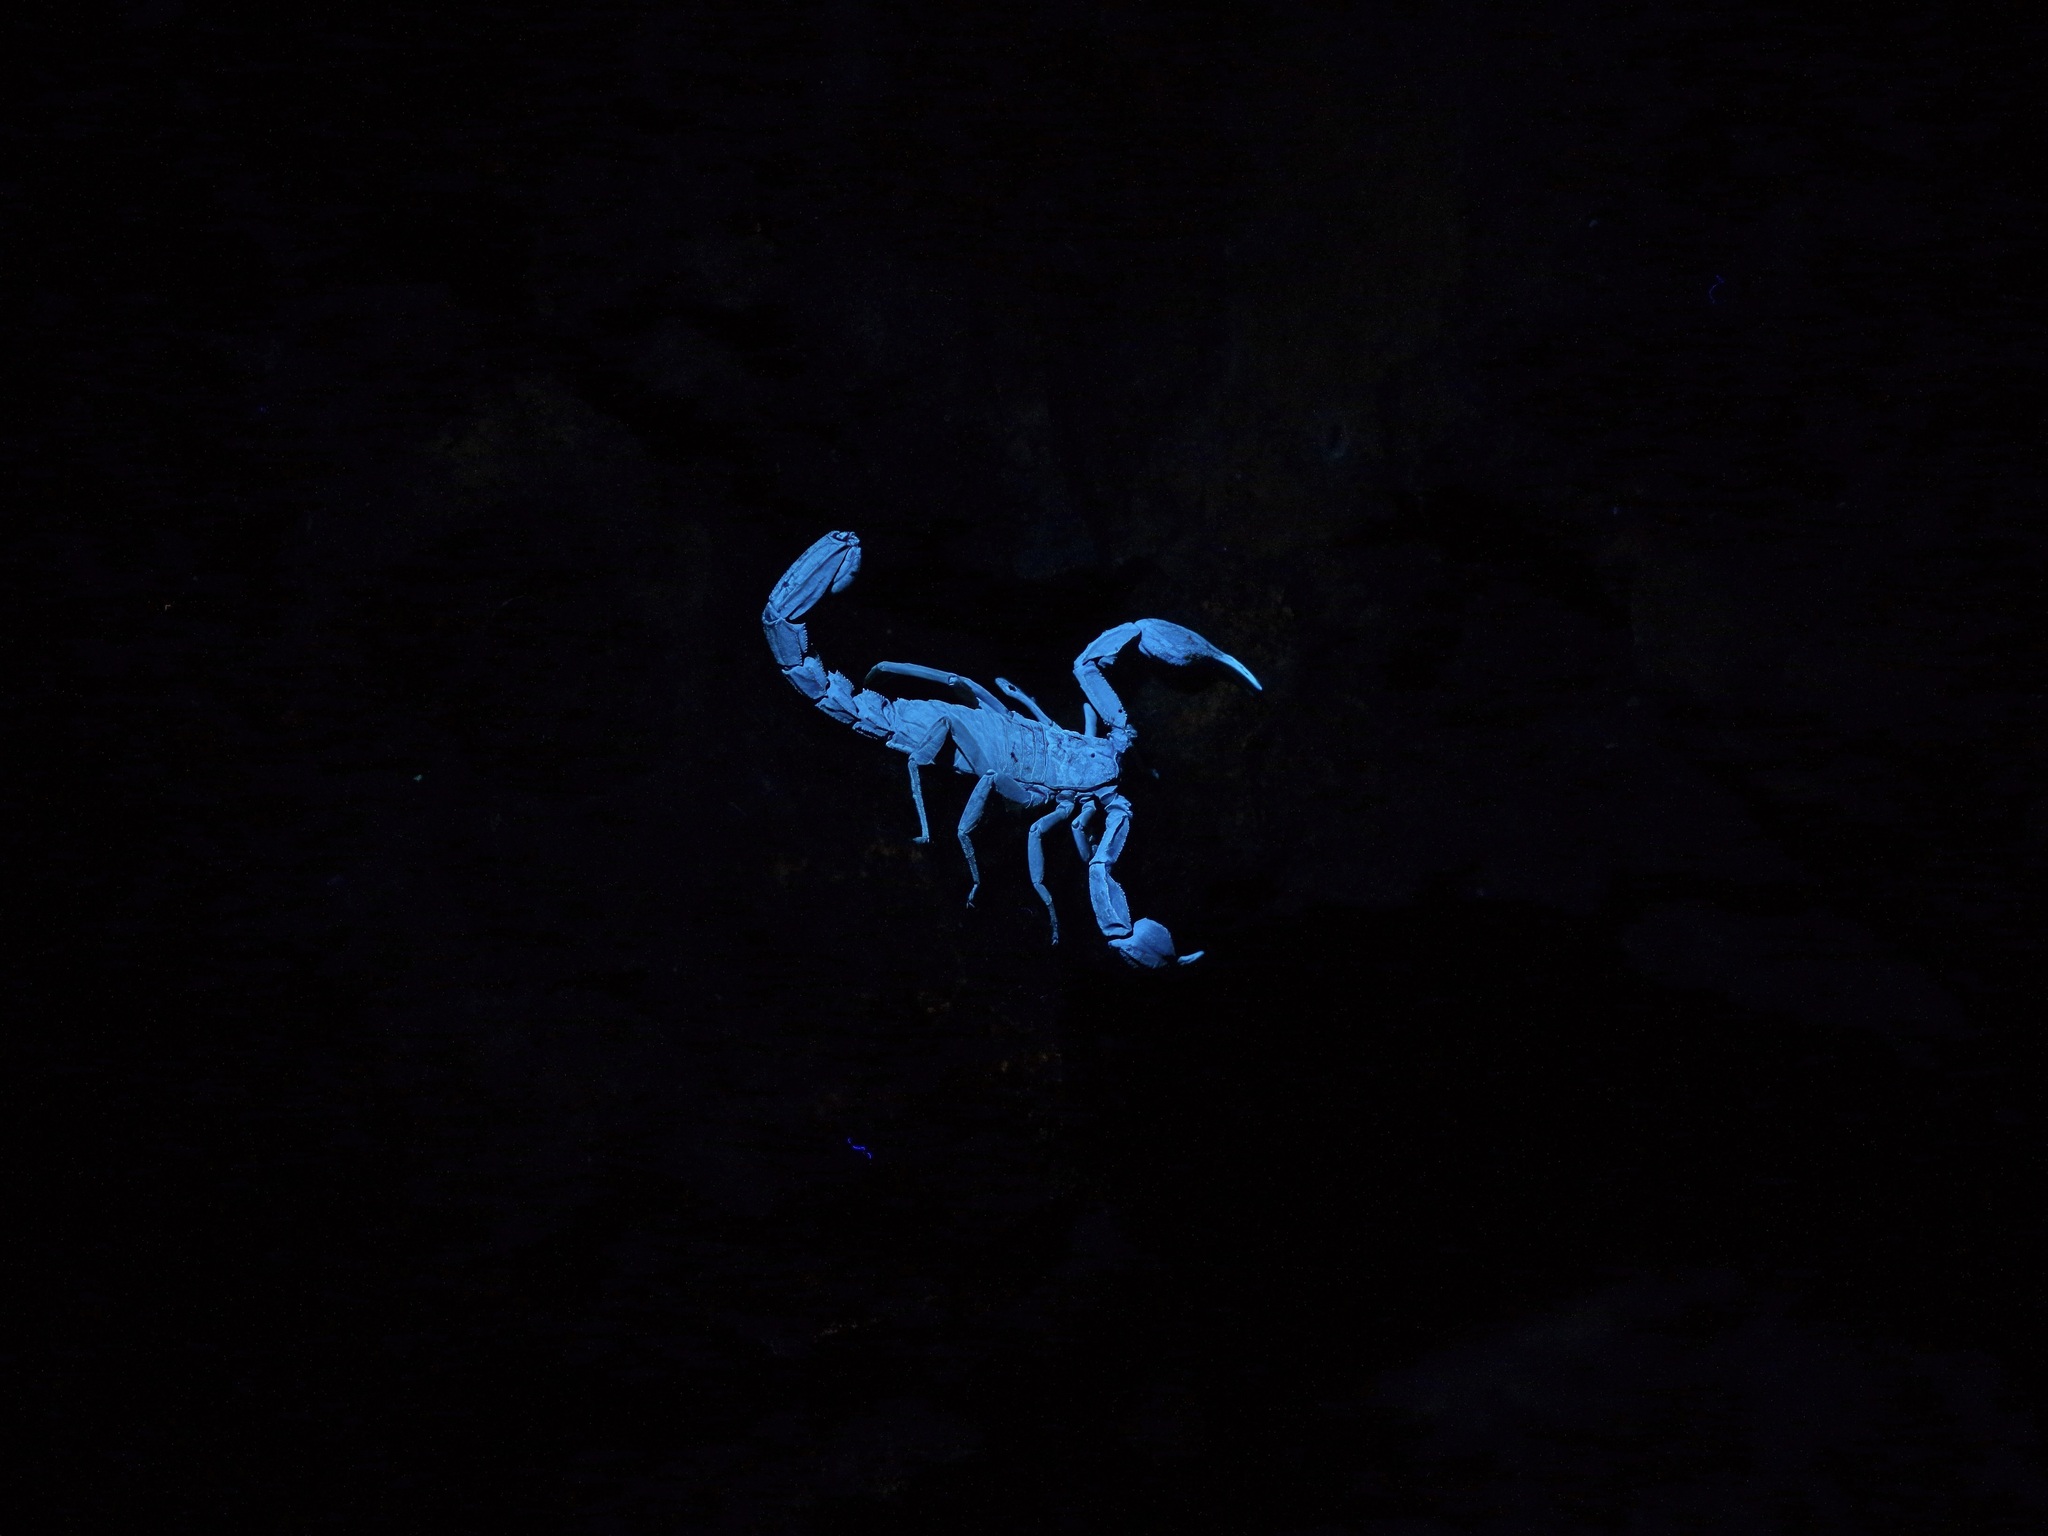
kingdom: Animalia
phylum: Arthropoda
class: Arachnida
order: Scorpiones
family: Vaejovidae
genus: Pseudouroctonus
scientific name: Pseudouroctonus reddelli
